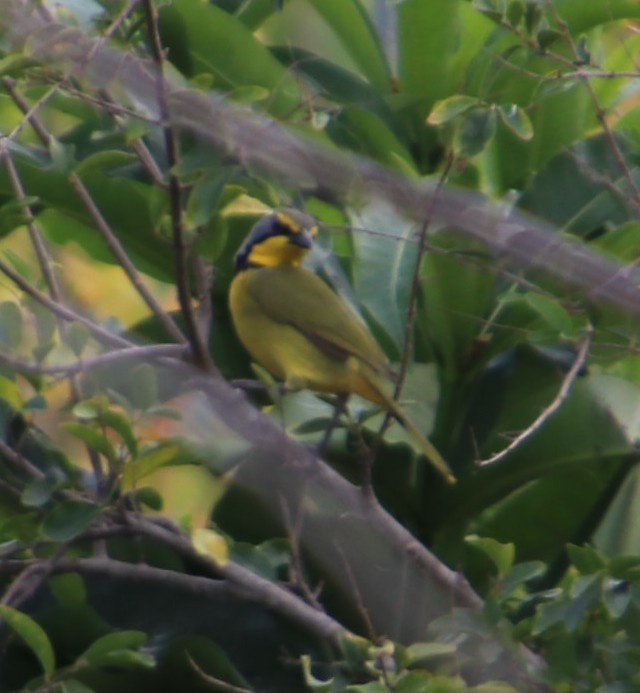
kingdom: Animalia
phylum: Chordata
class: Aves
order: Passeriformes
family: Malaconotidae
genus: Telophorus
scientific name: Telophorus zeylonus
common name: Bokmakierie
